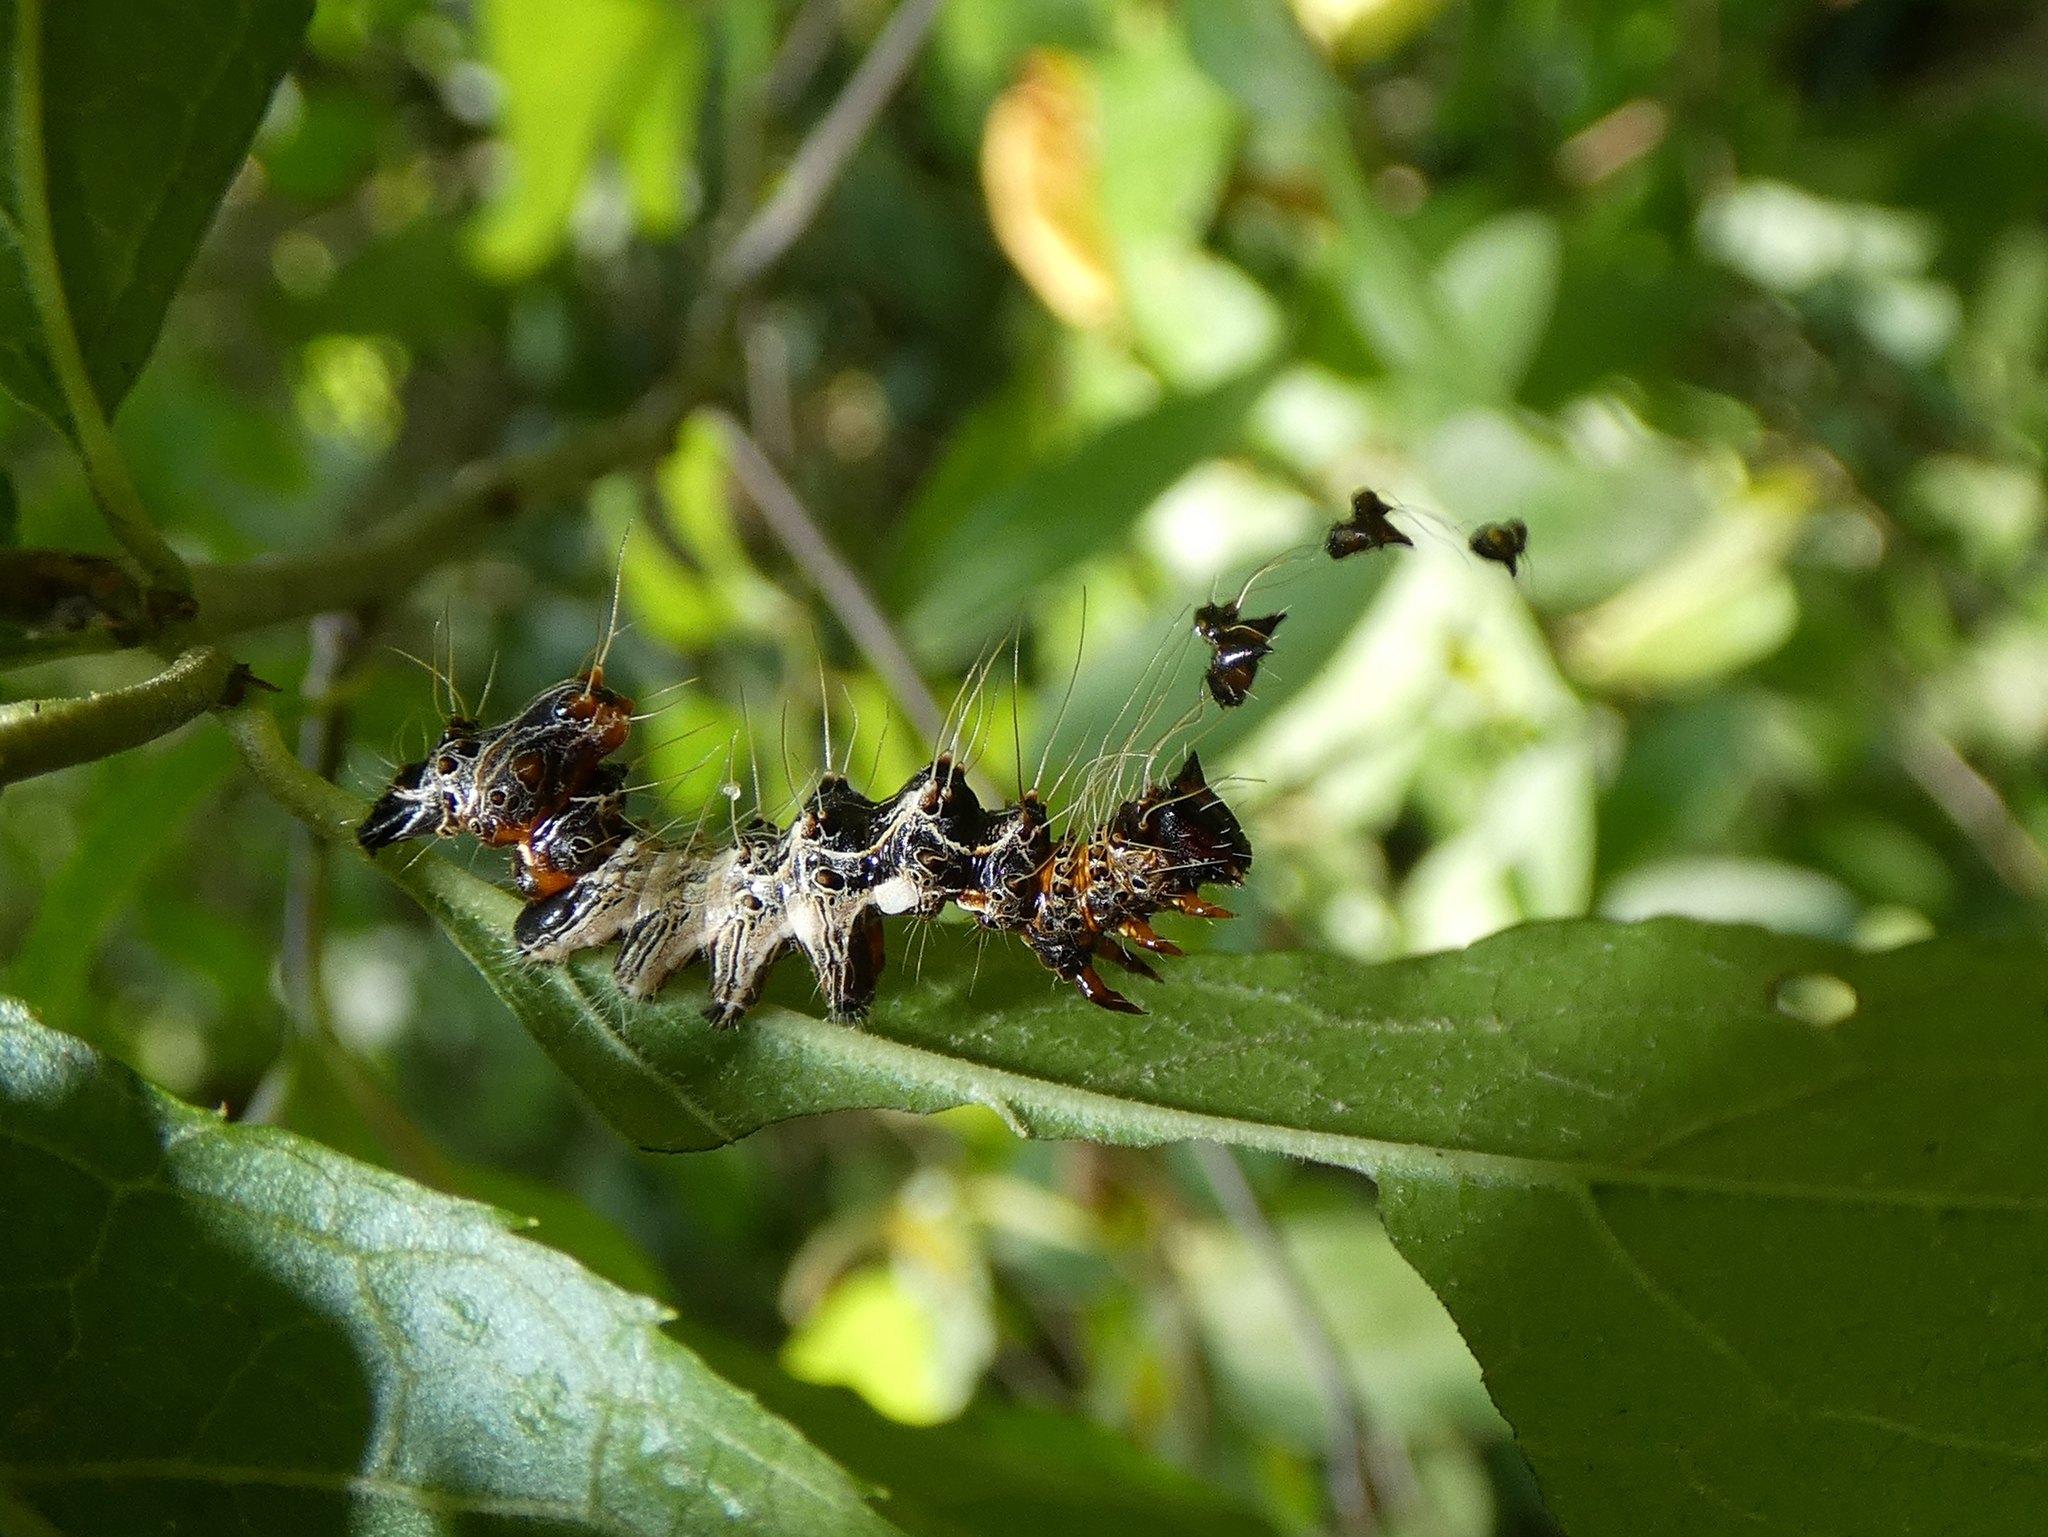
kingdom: Animalia
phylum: Arthropoda
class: Insecta
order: Lepidoptera
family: Noctuidae
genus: Harrisimemna
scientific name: Harrisimemna trisignata
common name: Harris threespot
